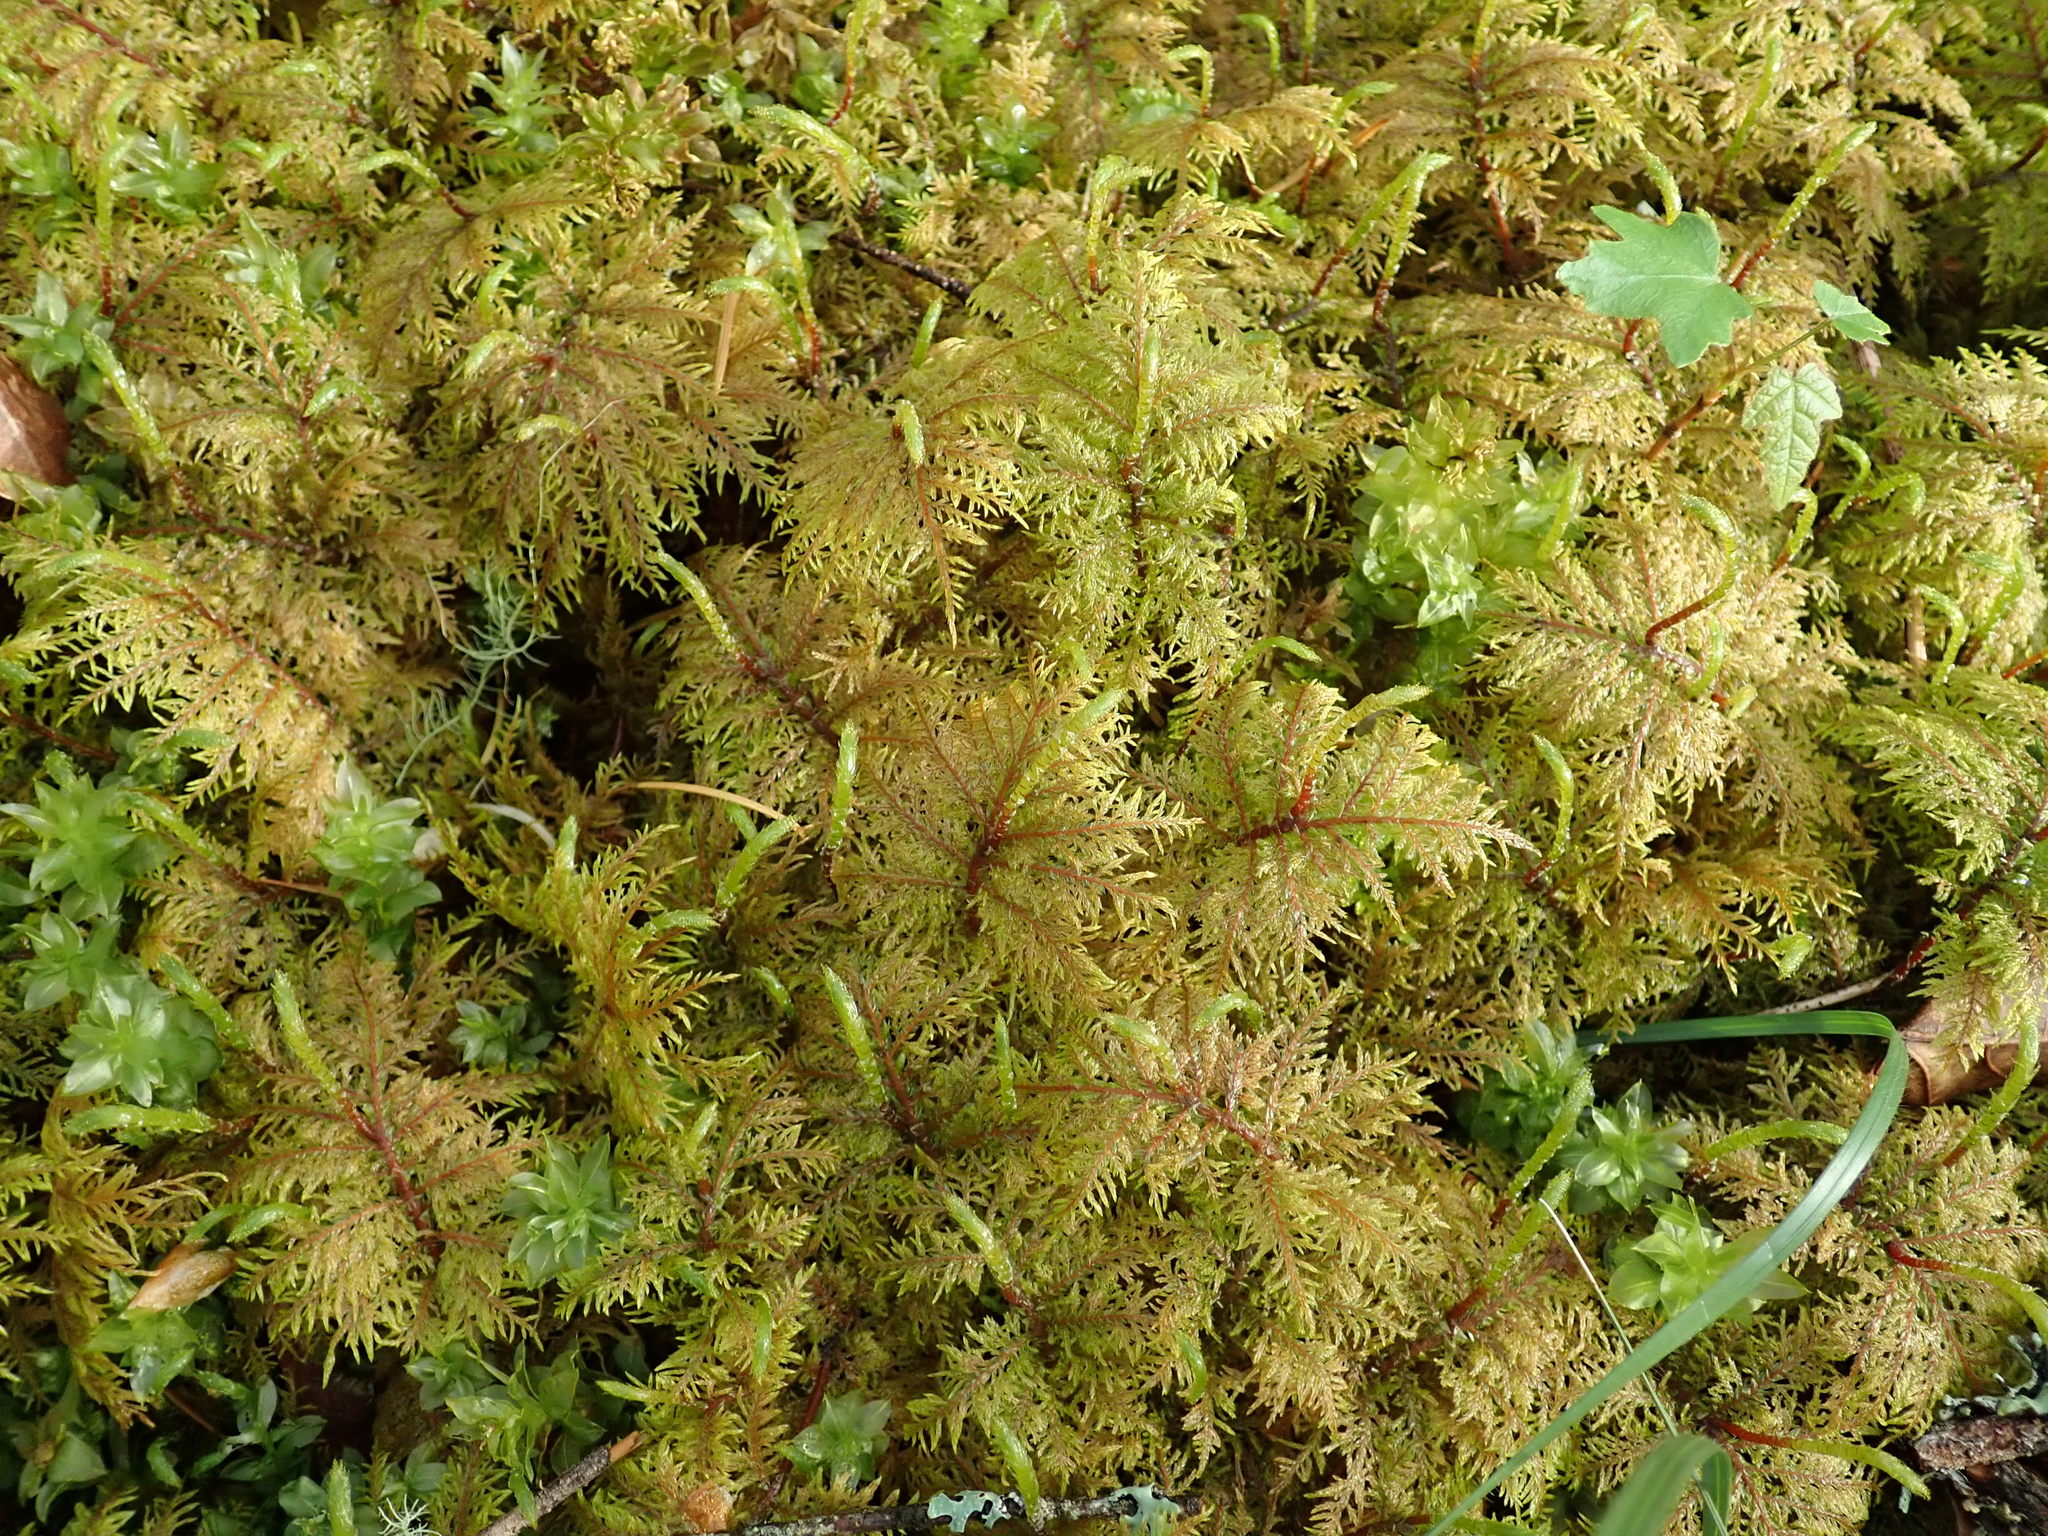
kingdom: Plantae
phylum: Bryophyta
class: Bryopsida
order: Hypnales
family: Hylocomiaceae
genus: Hylocomium
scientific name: Hylocomium splendens
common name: Stairstep moss
